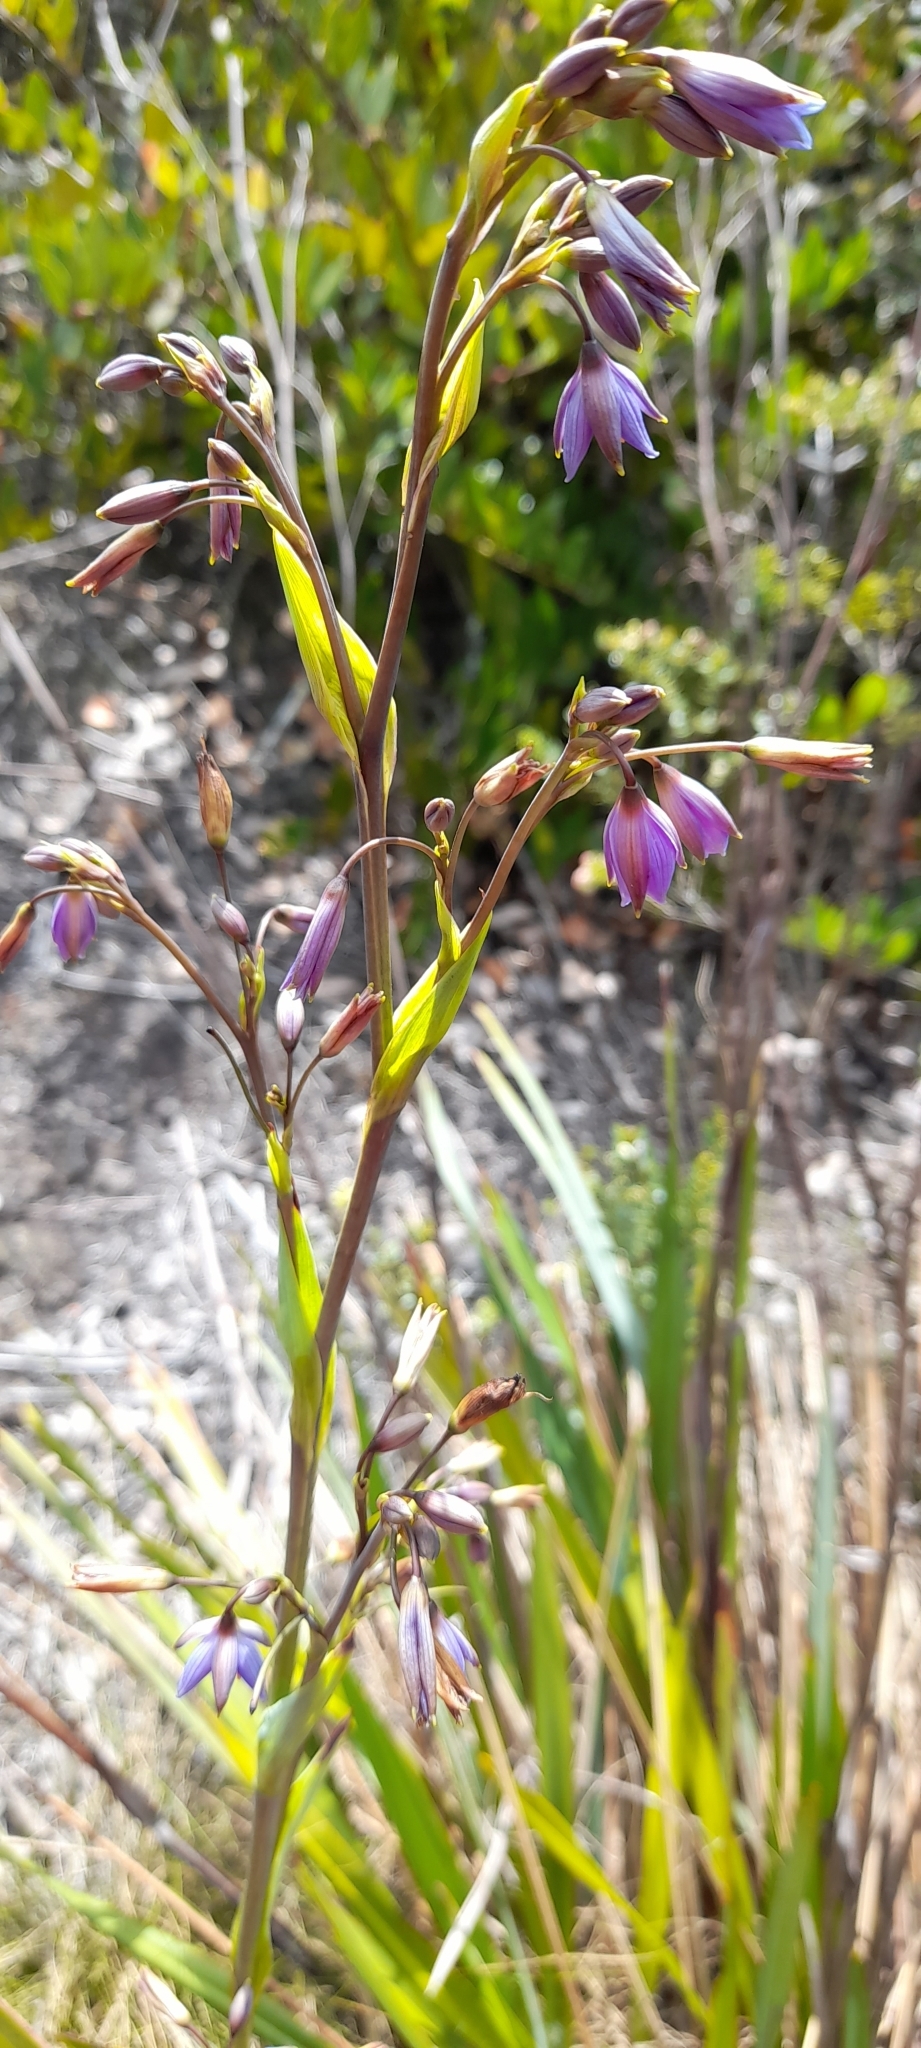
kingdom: Plantae
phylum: Tracheophyta
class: Liliopsida
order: Asparagales
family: Asphodelaceae
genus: Excremis
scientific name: Excremis coarctata
